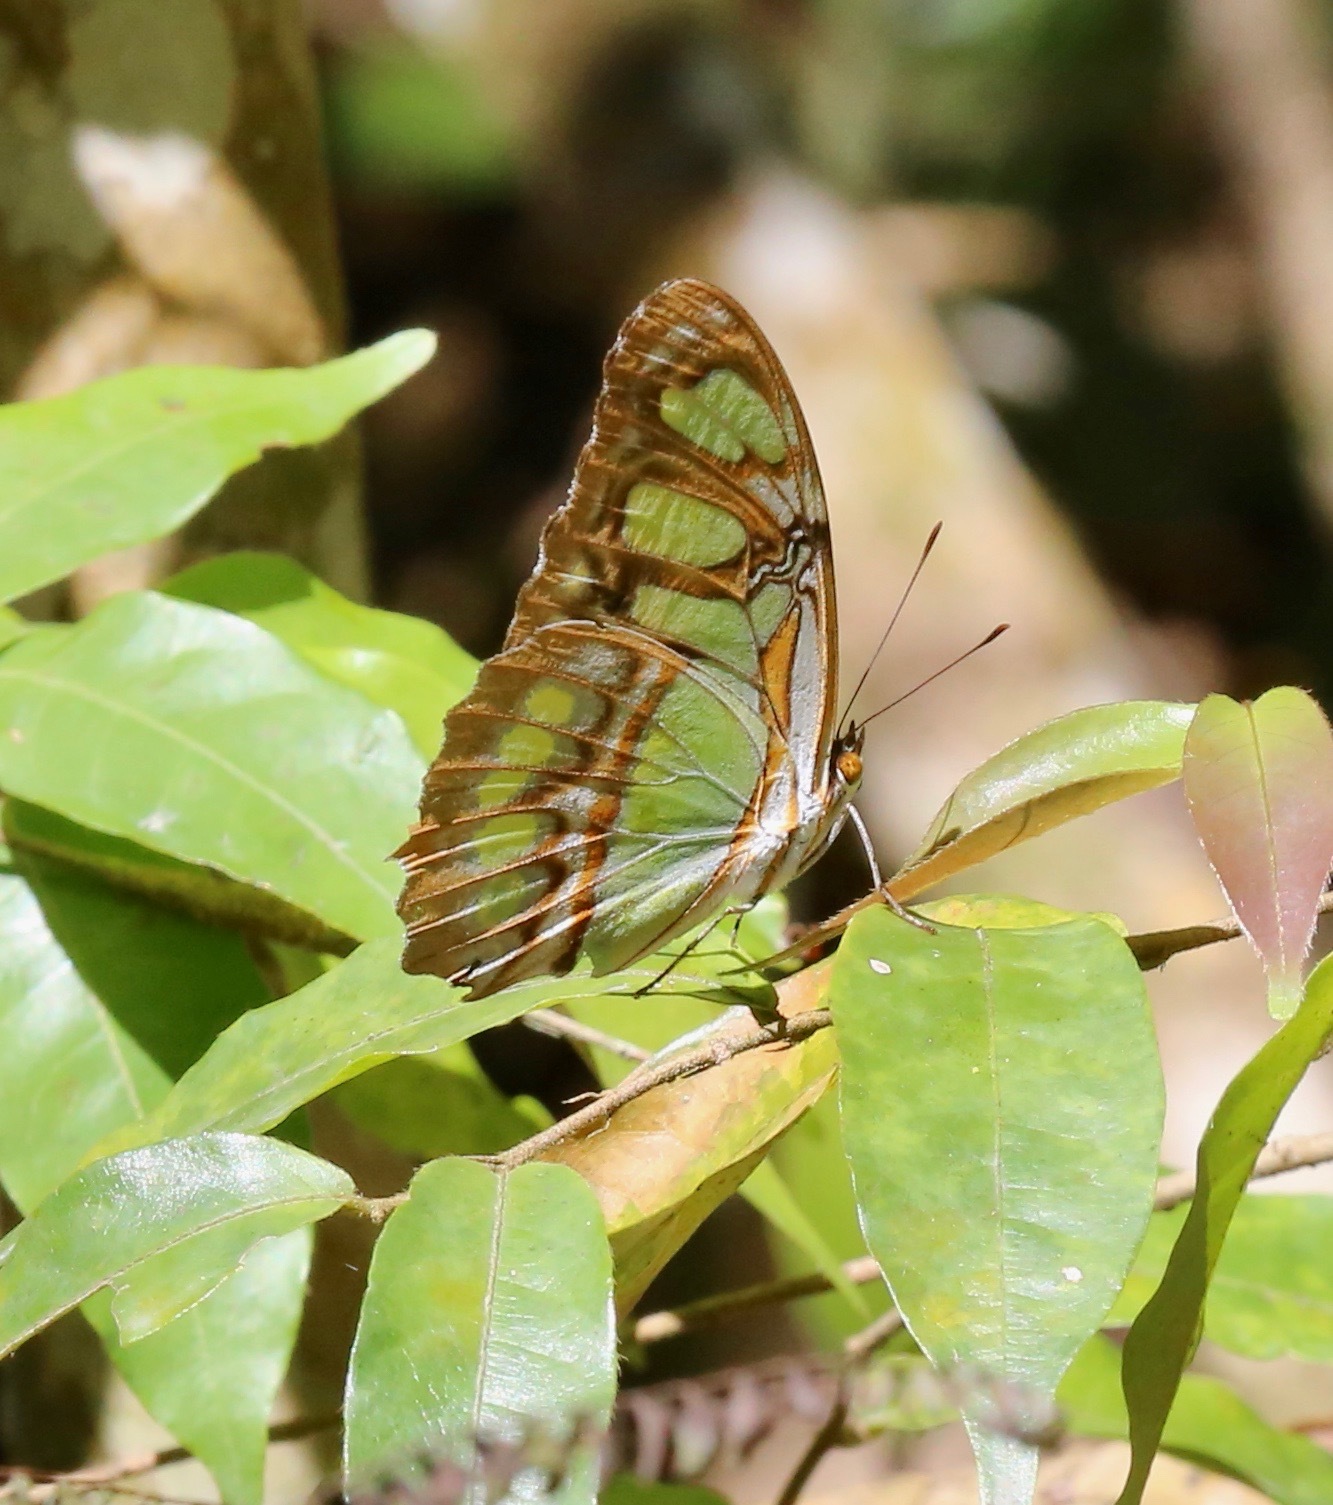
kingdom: Animalia
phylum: Arthropoda
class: Insecta
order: Lepidoptera
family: Nymphalidae
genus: Siproeta
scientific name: Siproeta stelenes
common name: Malachite
